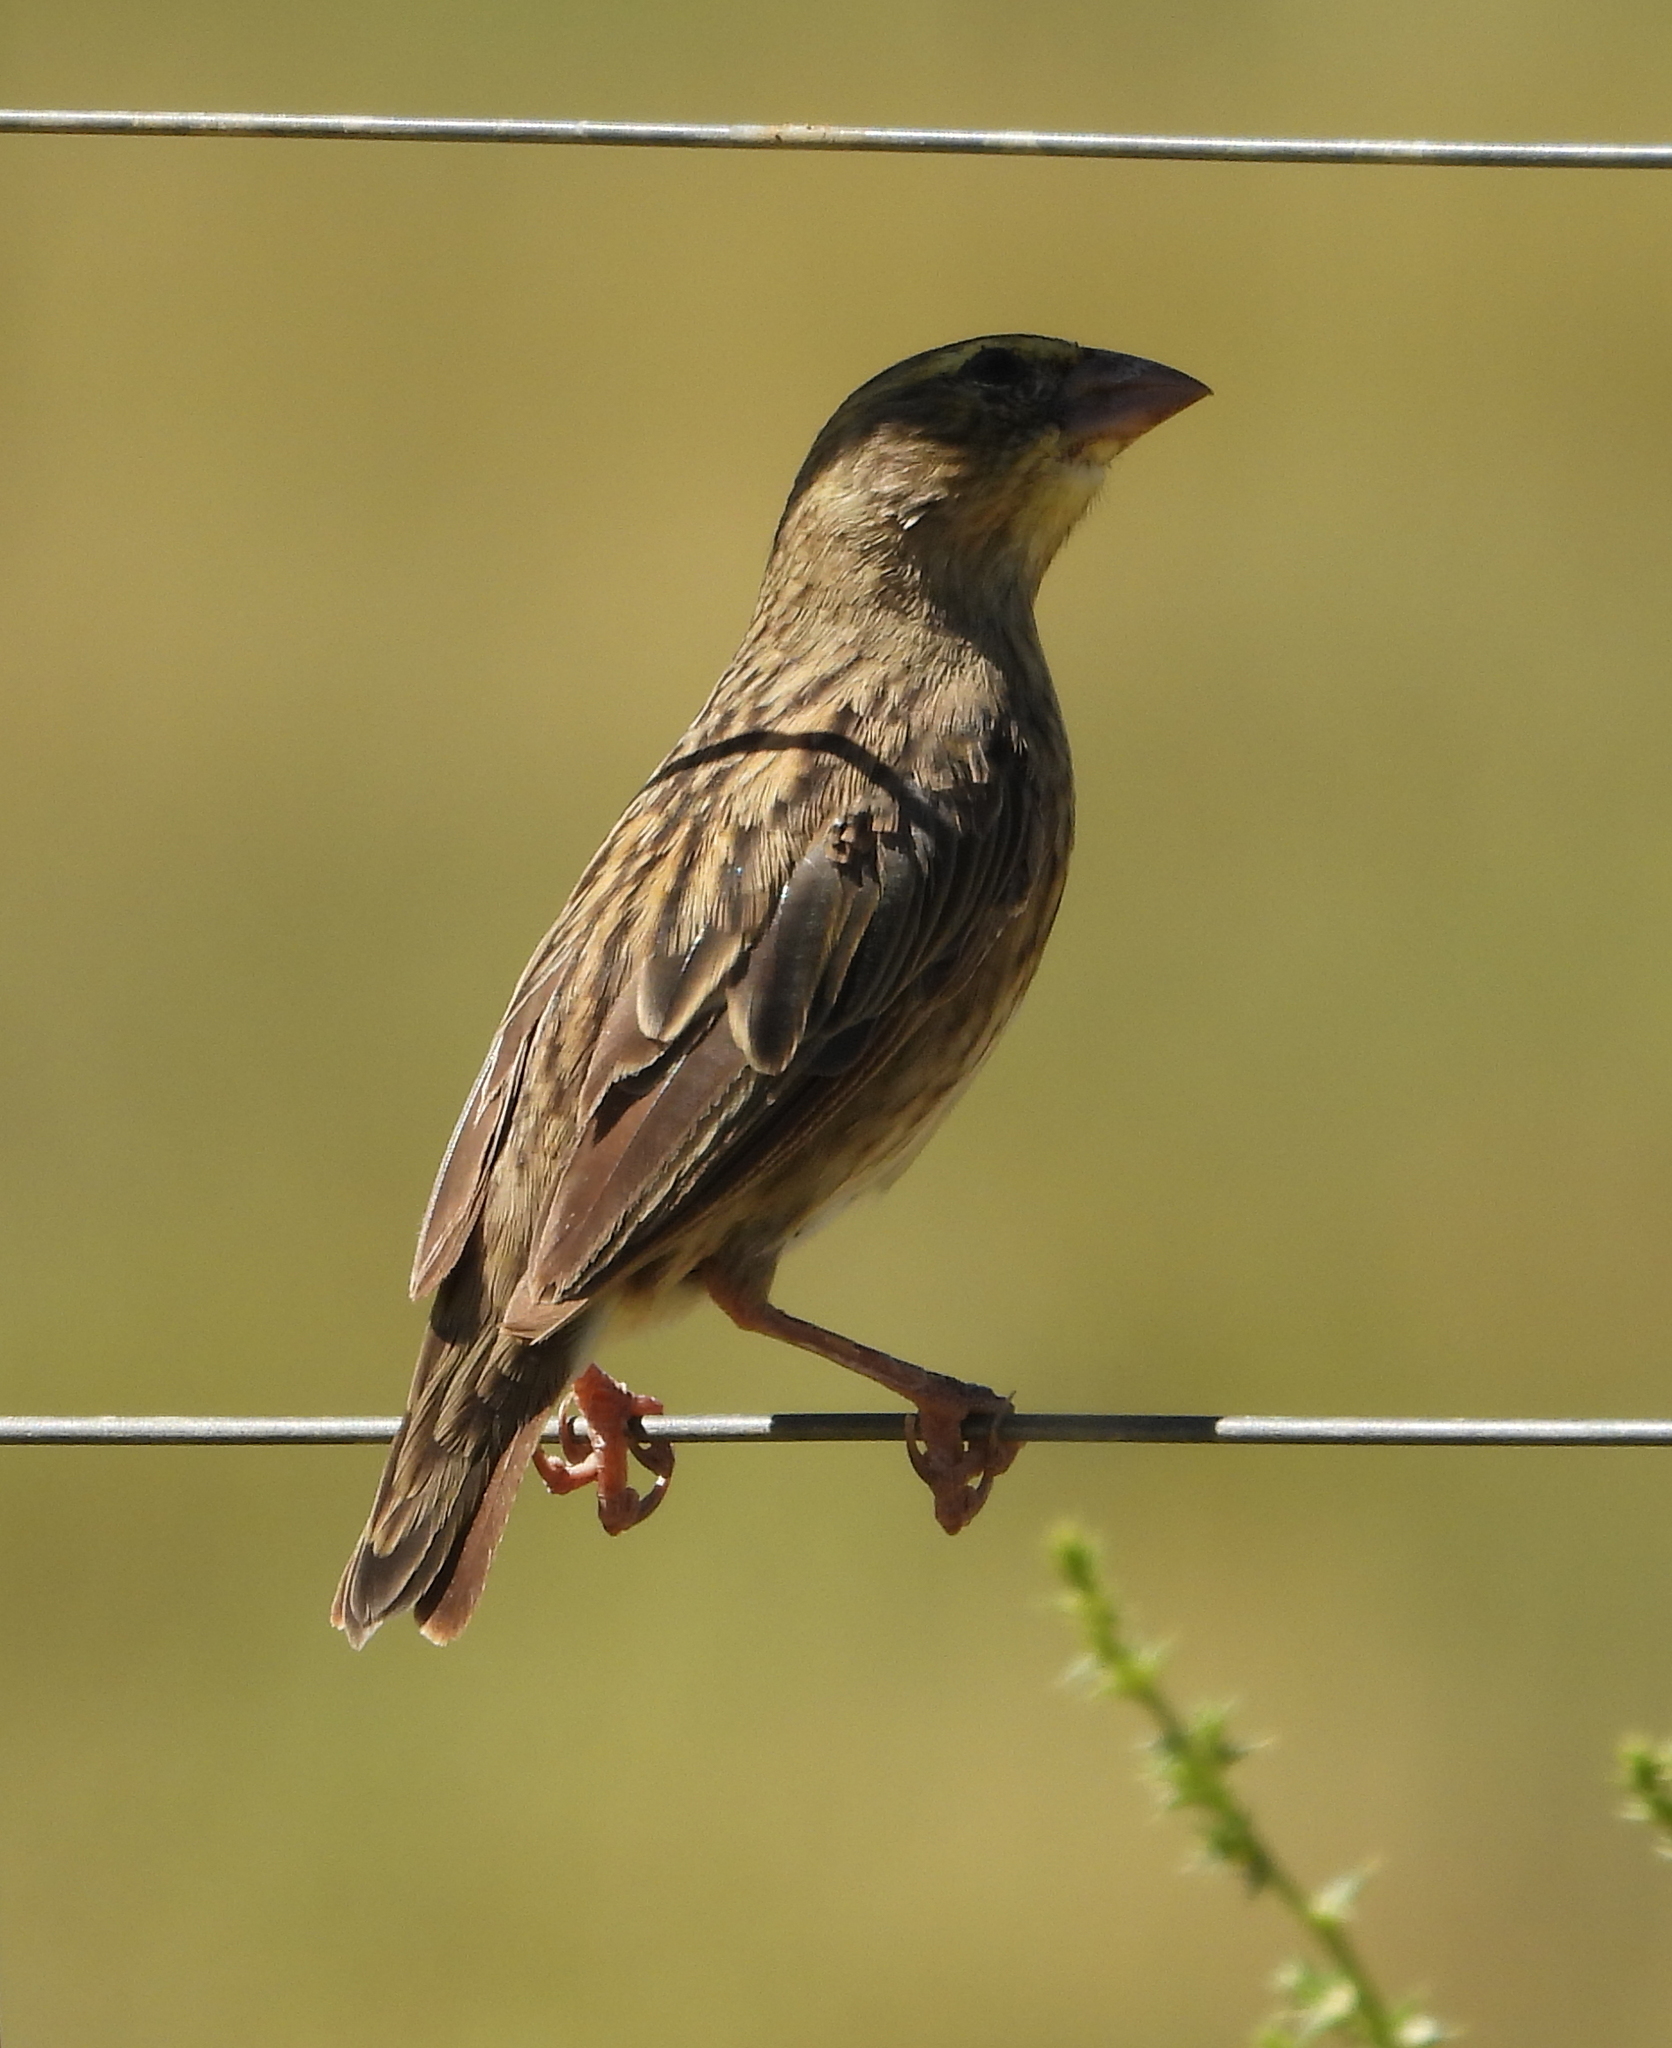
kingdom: Animalia
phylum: Chordata
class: Aves
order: Passeriformes
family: Ploceidae
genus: Euplectes
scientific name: Euplectes orix
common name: Southern red bishop
